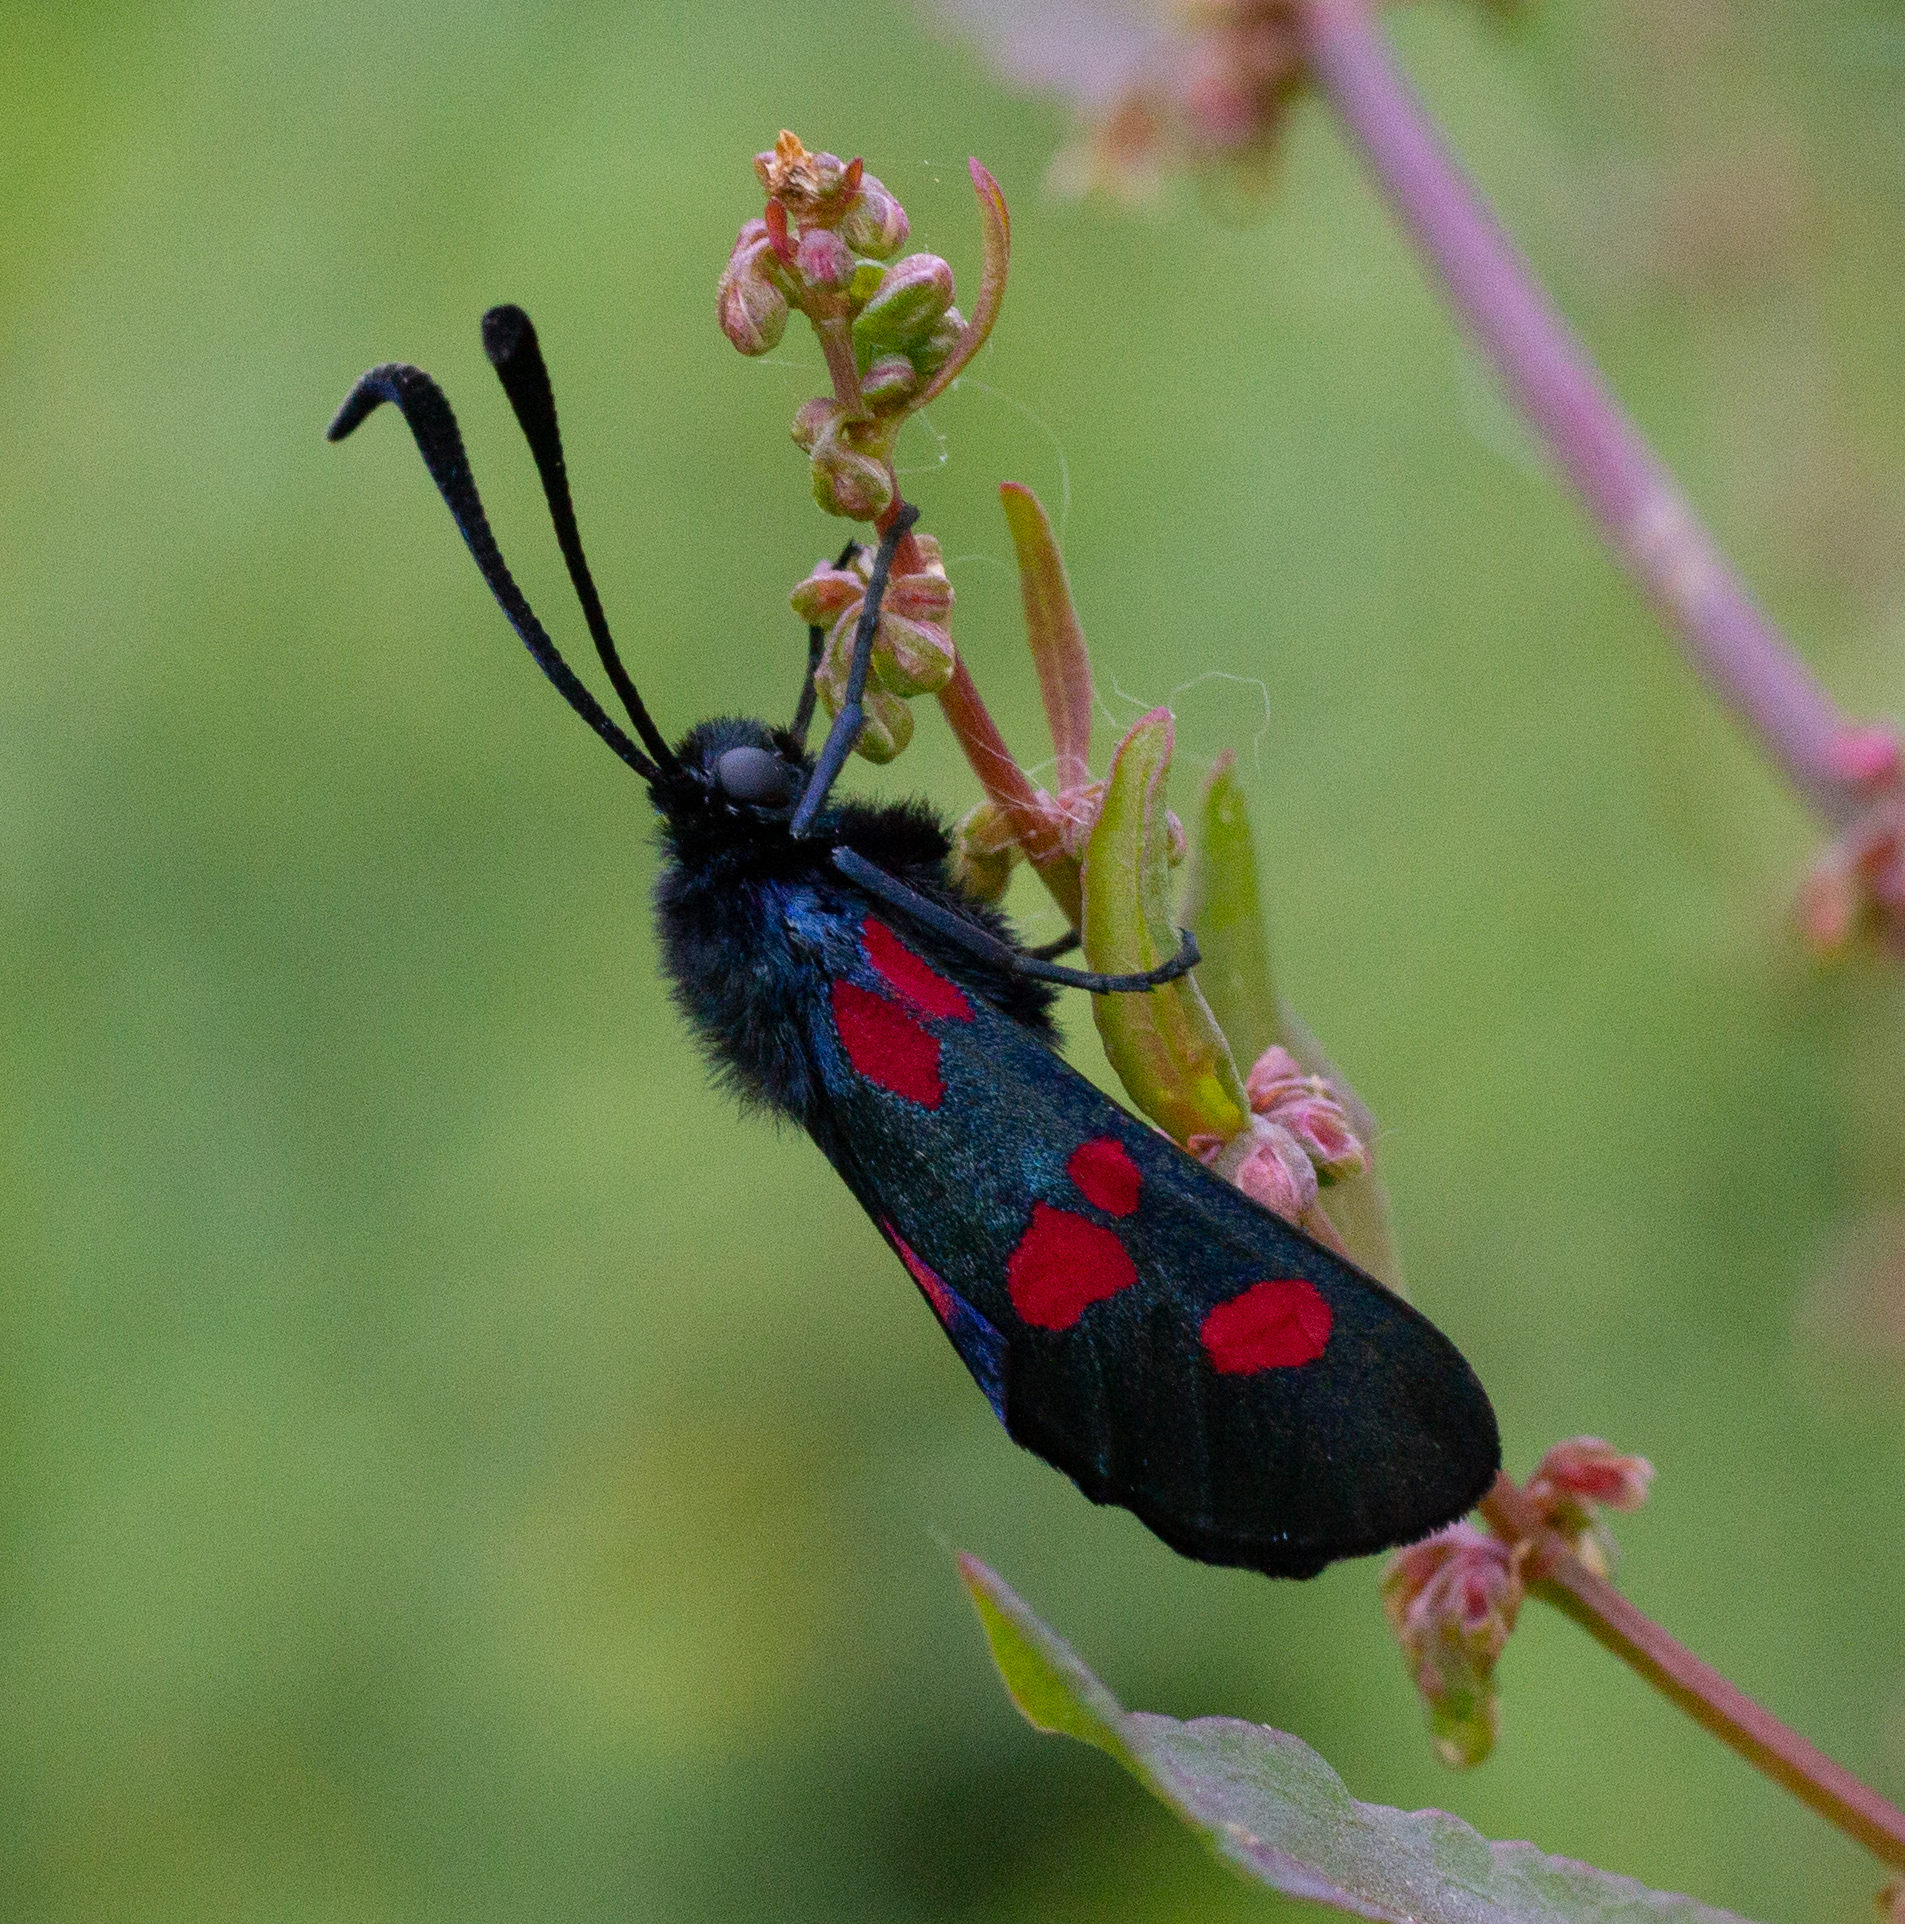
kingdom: Animalia
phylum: Arthropoda
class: Insecta
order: Lepidoptera
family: Zygaenidae
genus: Zygaena
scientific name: Zygaena trifolii
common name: Five-spot burnet
